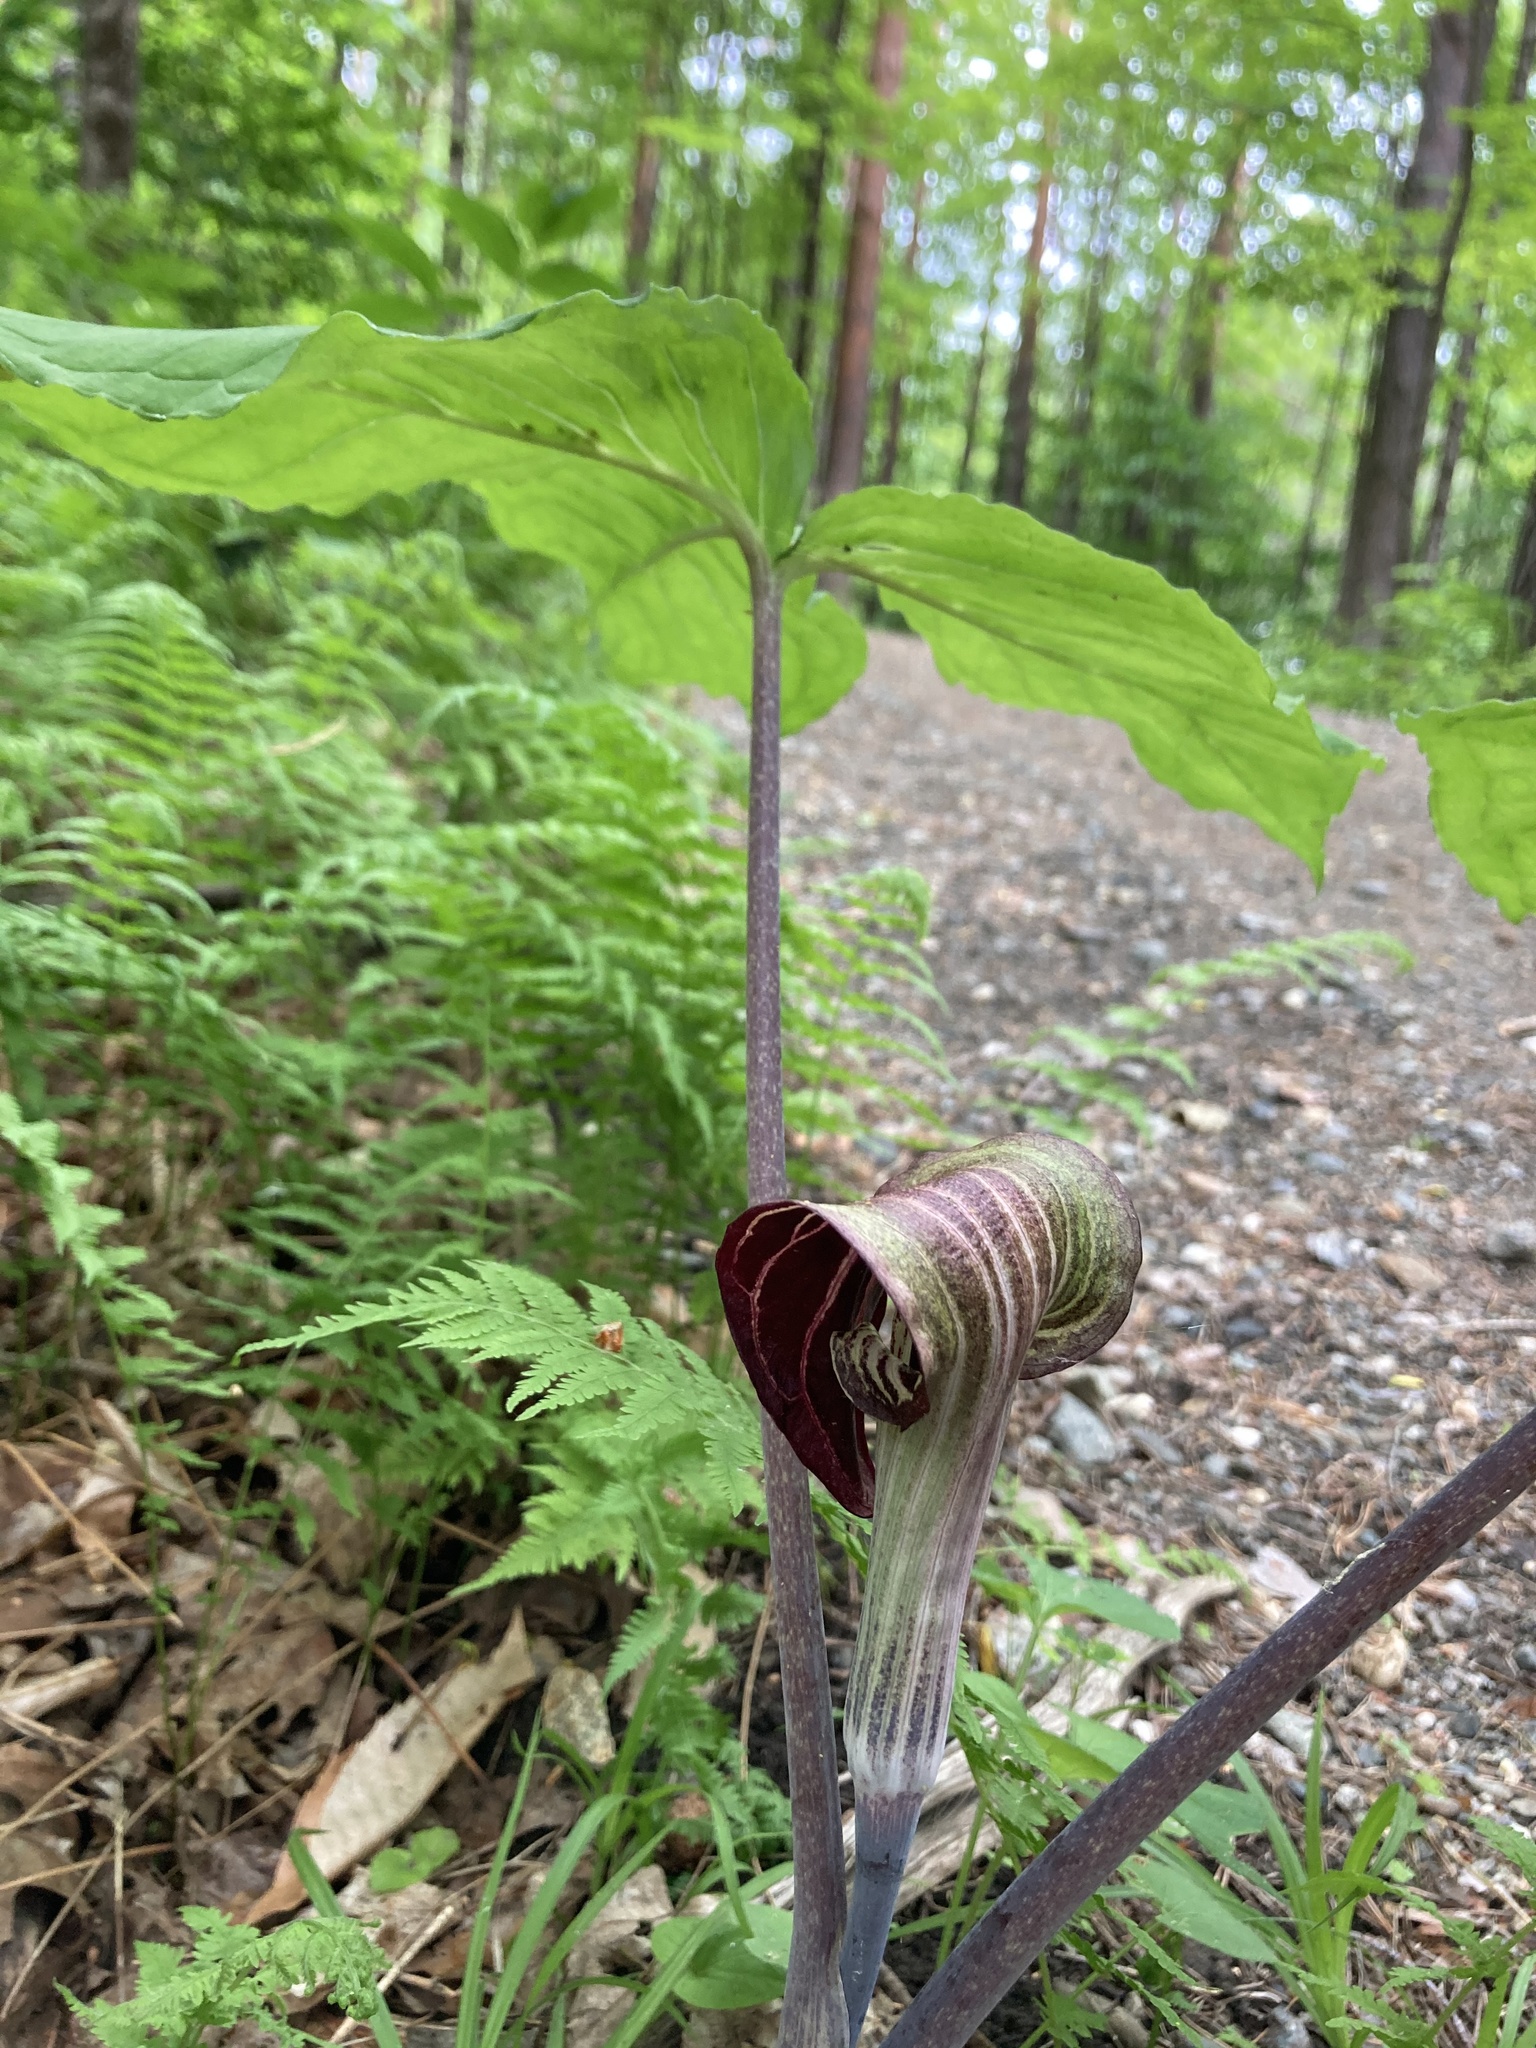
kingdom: Plantae
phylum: Tracheophyta
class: Liliopsida
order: Alismatales
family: Araceae
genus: Arisaema
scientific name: Arisaema triphyllum
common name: Jack-in-the-pulpit
